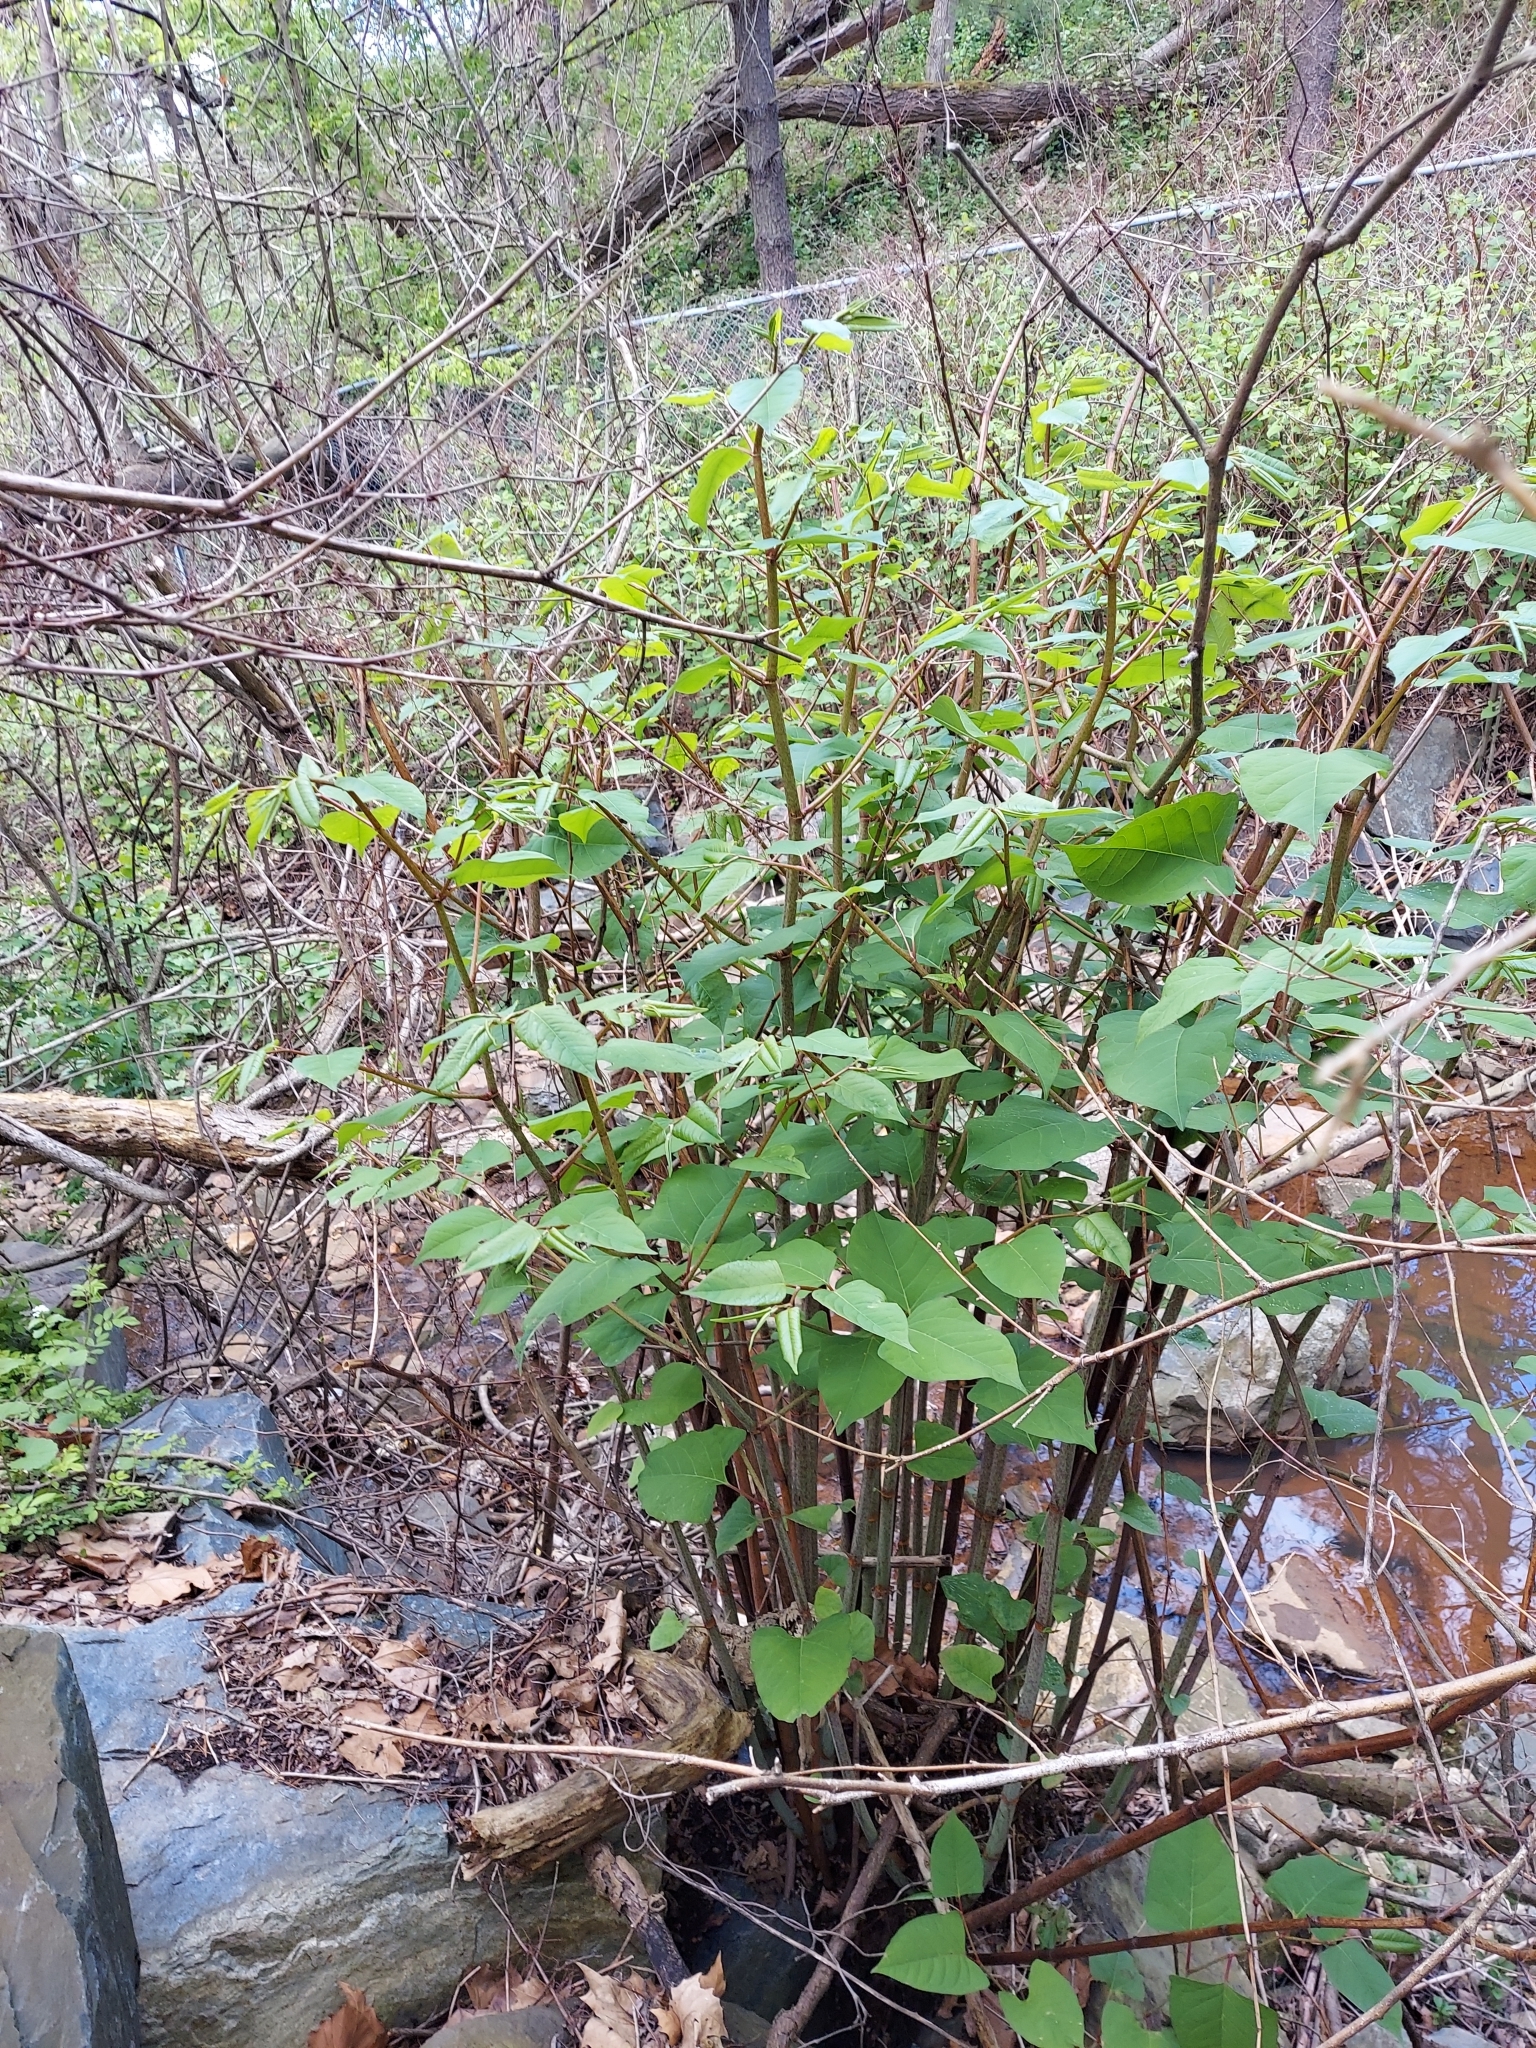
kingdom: Plantae
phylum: Tracheophyta
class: Magnoliopsida
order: Caryophyllales
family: Polygonaceae
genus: Reynoutria
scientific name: Reynoutria japonica
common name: Japanese knotweed
